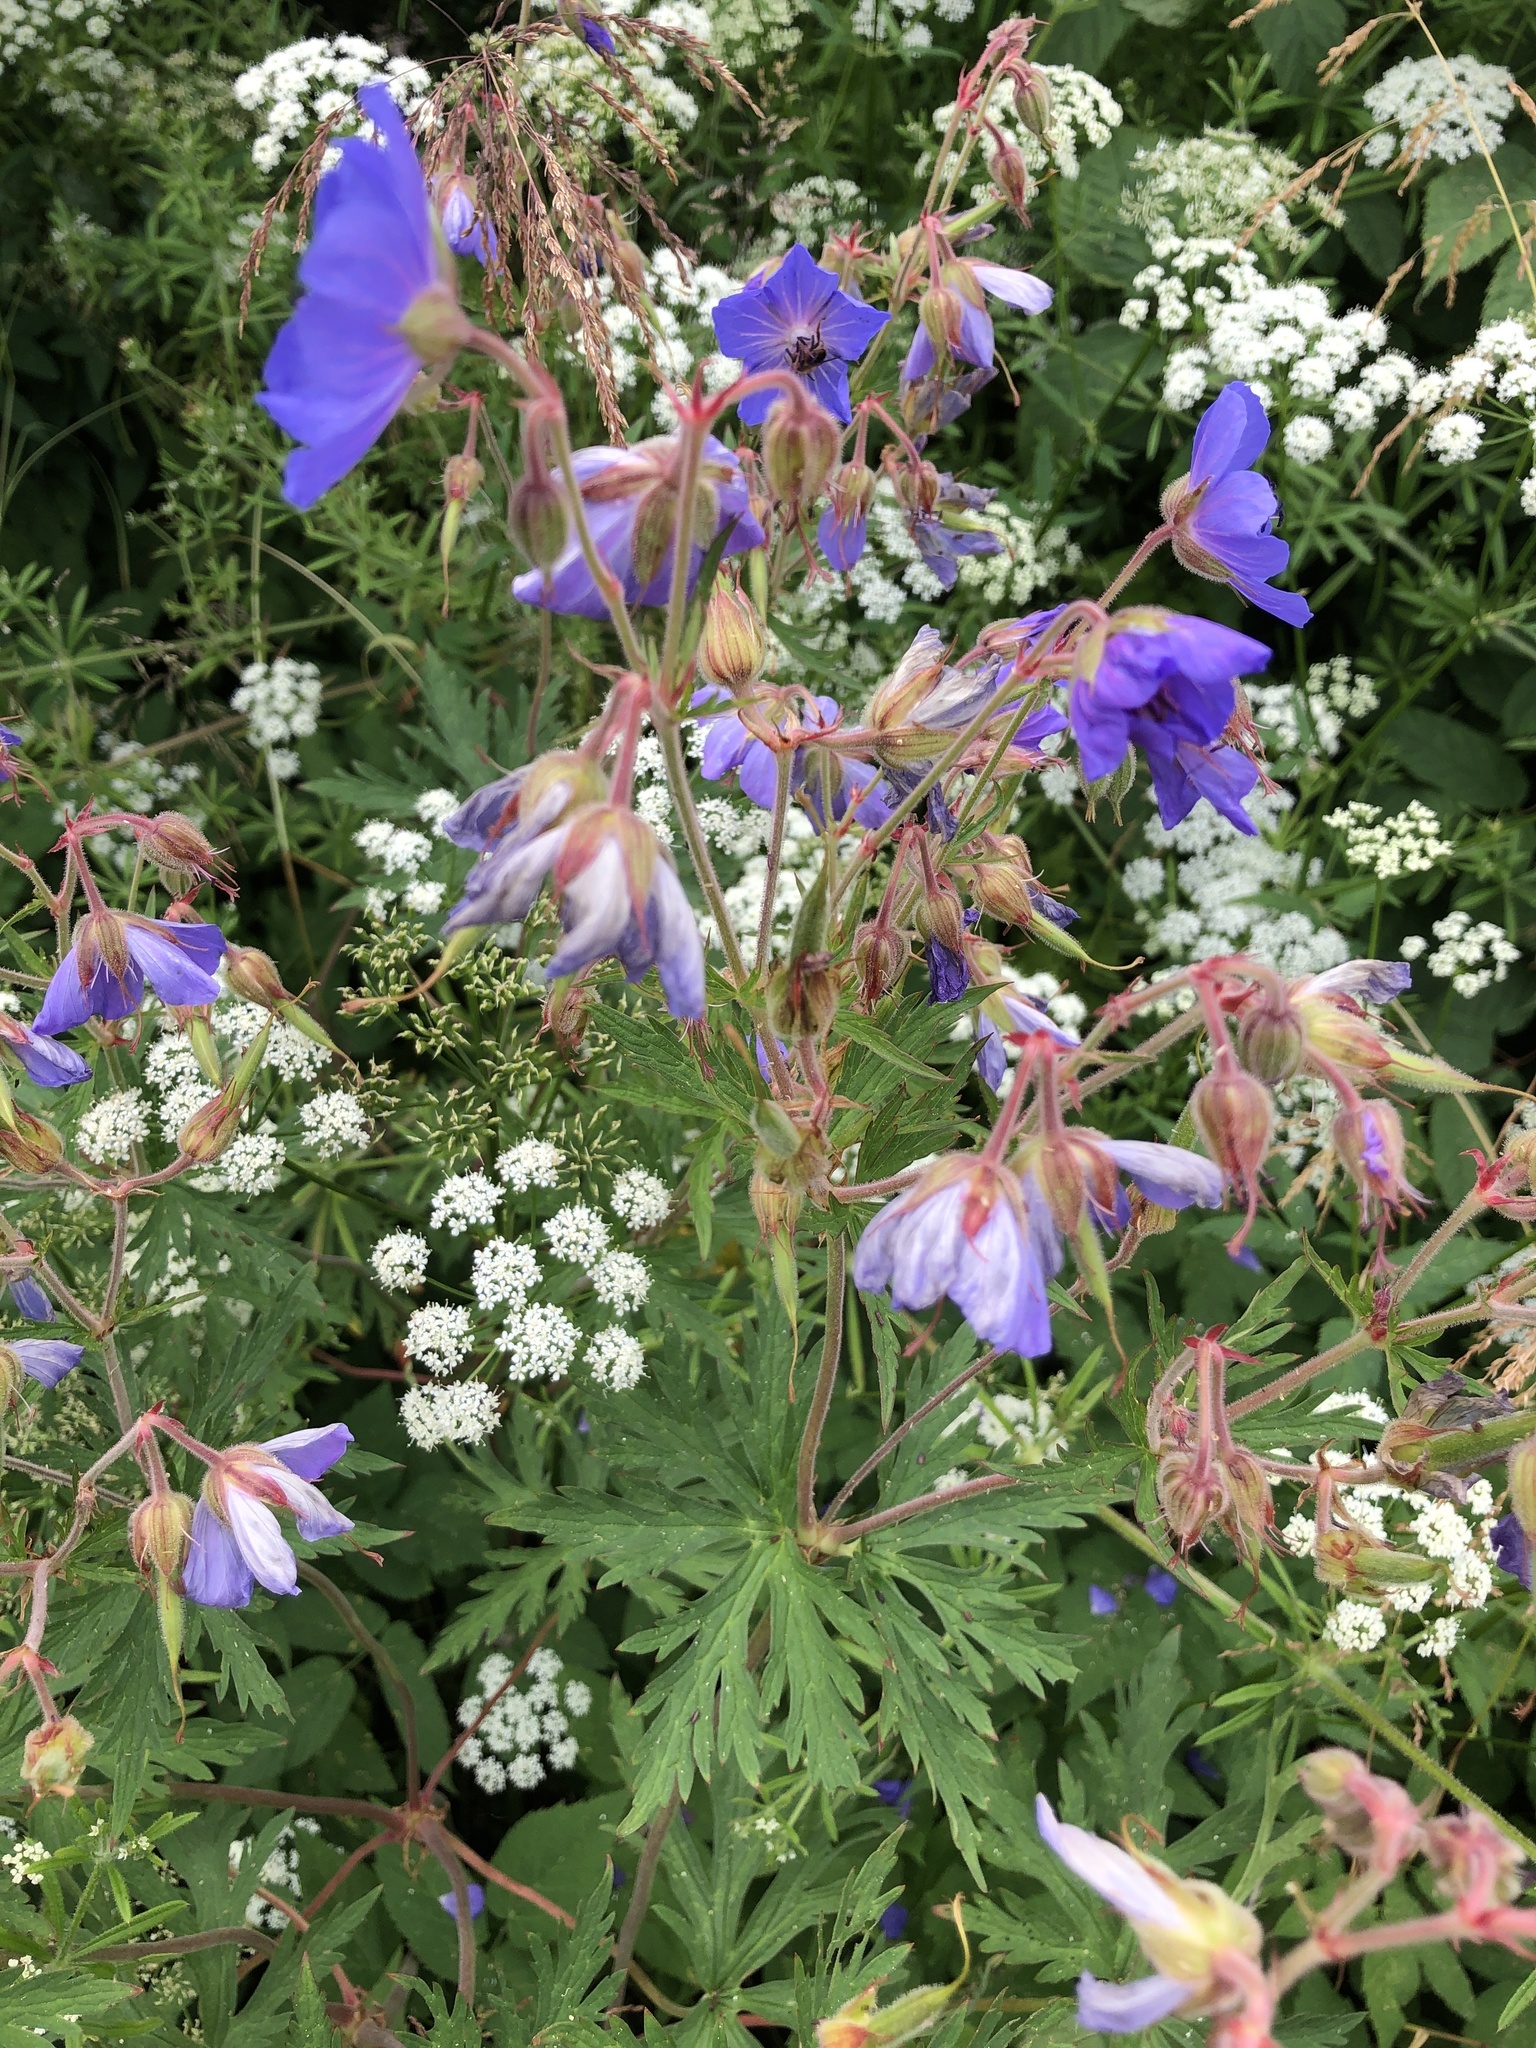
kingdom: Plantae
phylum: Tracheophyta
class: Magnoliopsida
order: Geraniales
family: Geraniaceae
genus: Geranium
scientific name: Geranium pratense
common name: Meadow crane's-bill
